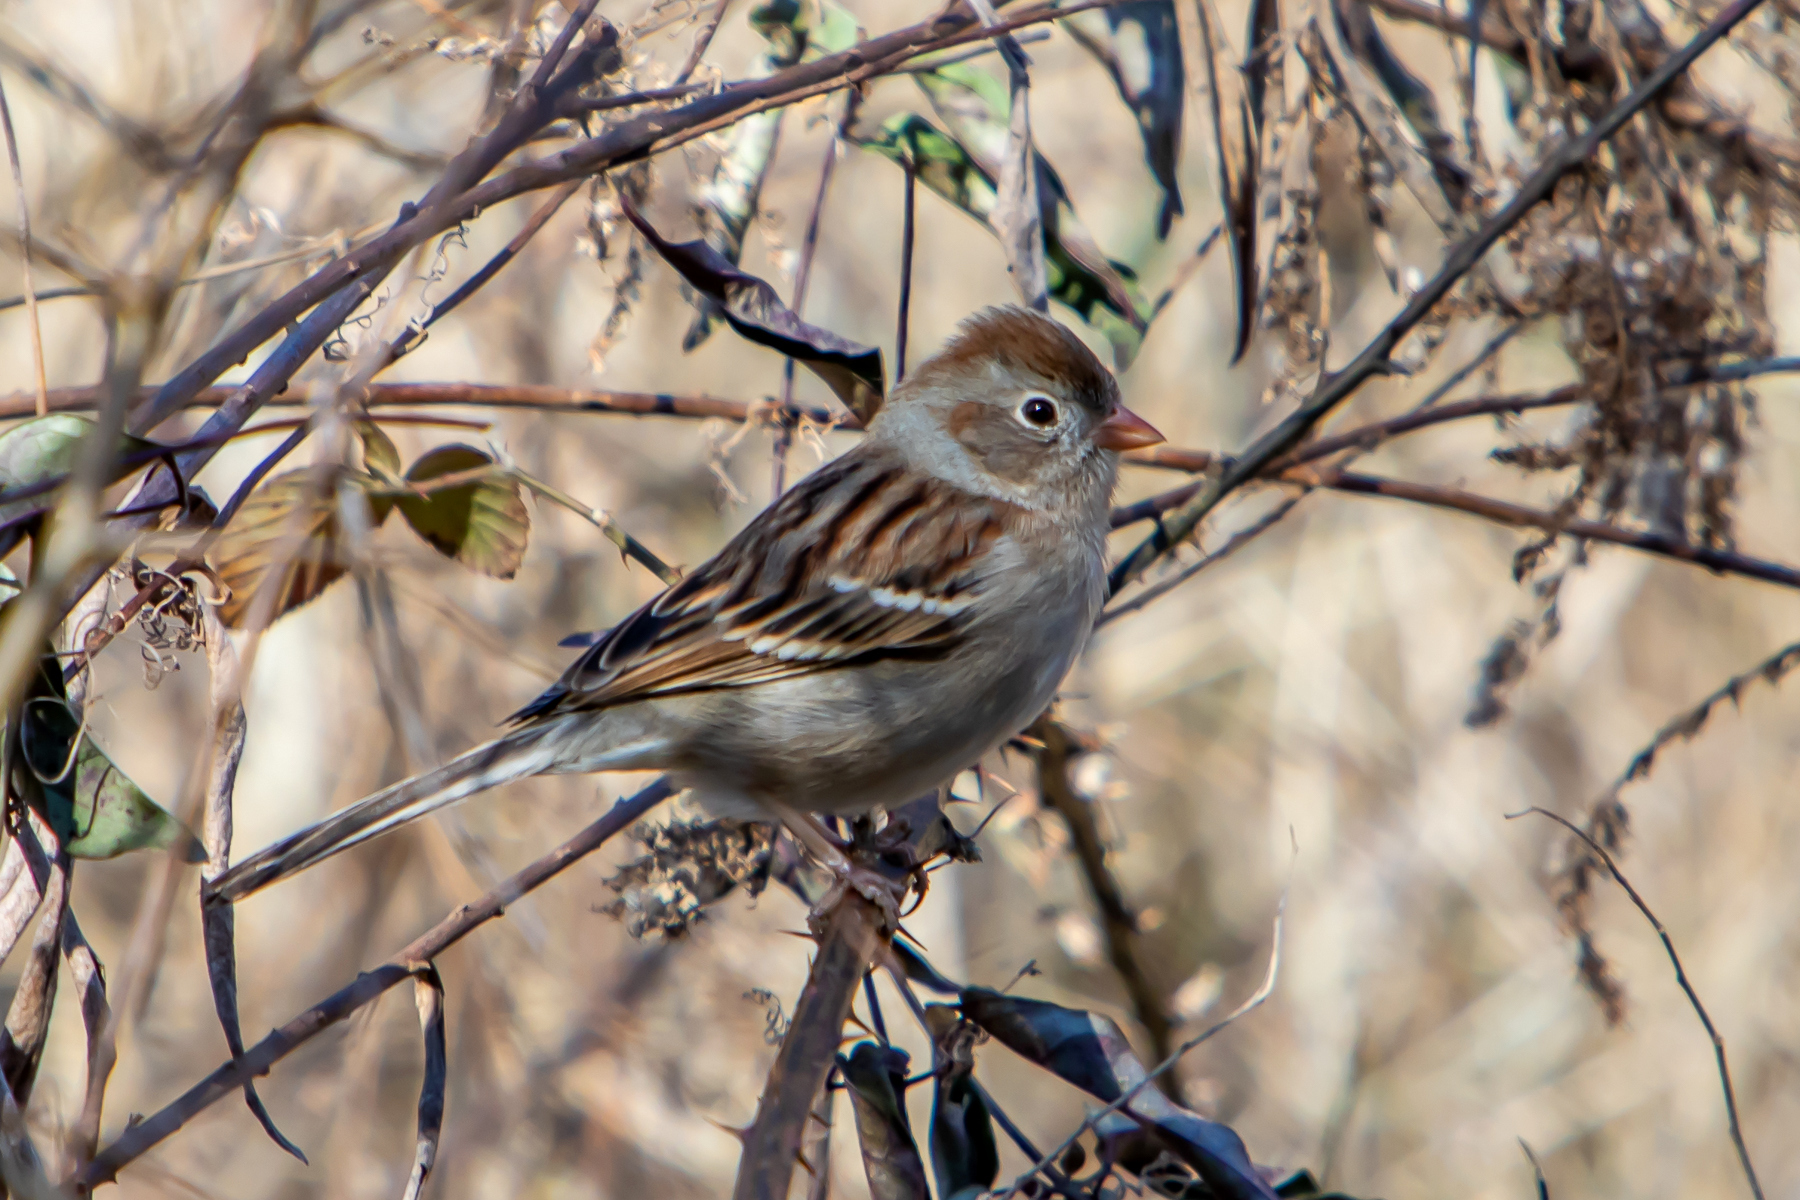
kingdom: Animalia
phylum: Chordata
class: Aves
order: Passeriformes
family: Passerellidae
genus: Spizella
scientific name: Spizella pusilla
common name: Field sparrow
